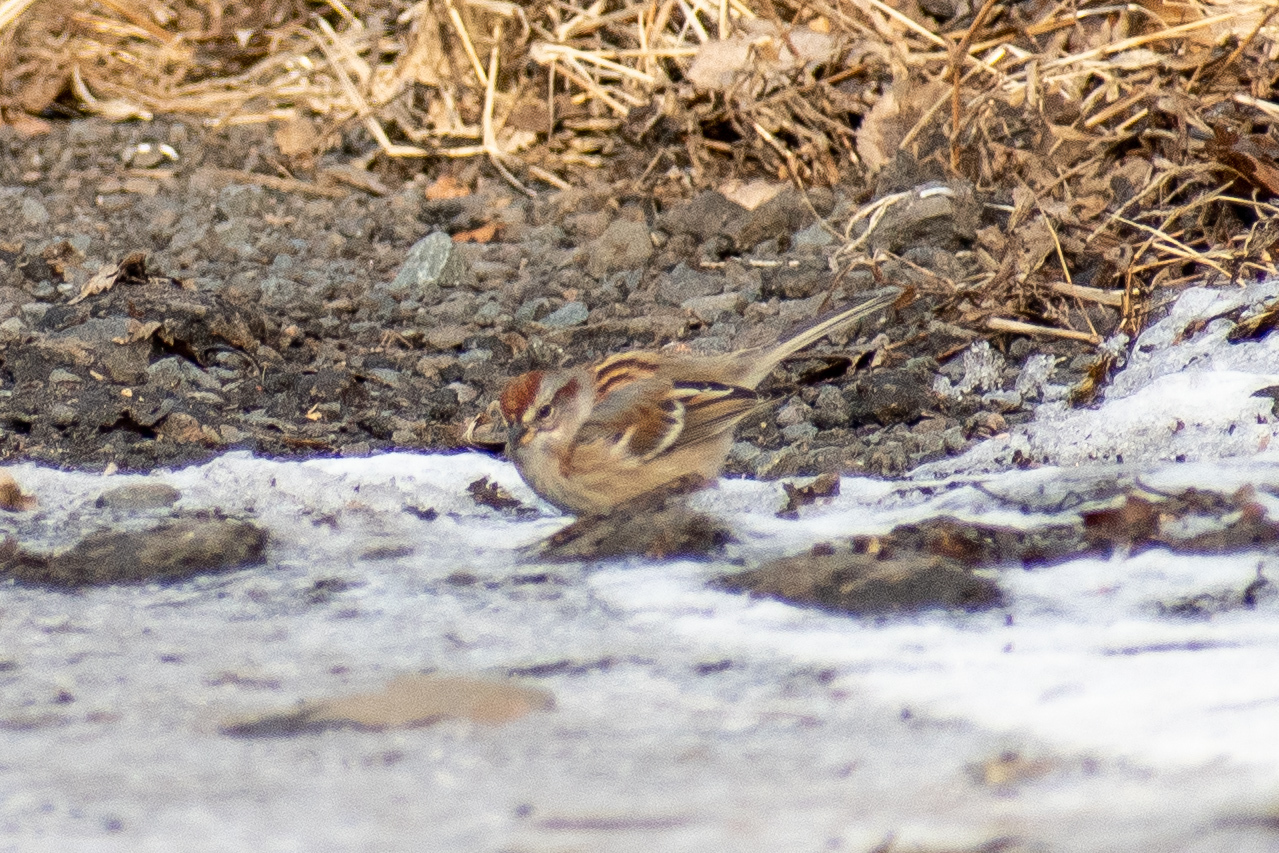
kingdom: Animalia
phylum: Chordata
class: Aves
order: Passeriformes
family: Passerellidae
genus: Spizelloides
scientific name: Spizelloides arborea
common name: American tree sparrow
